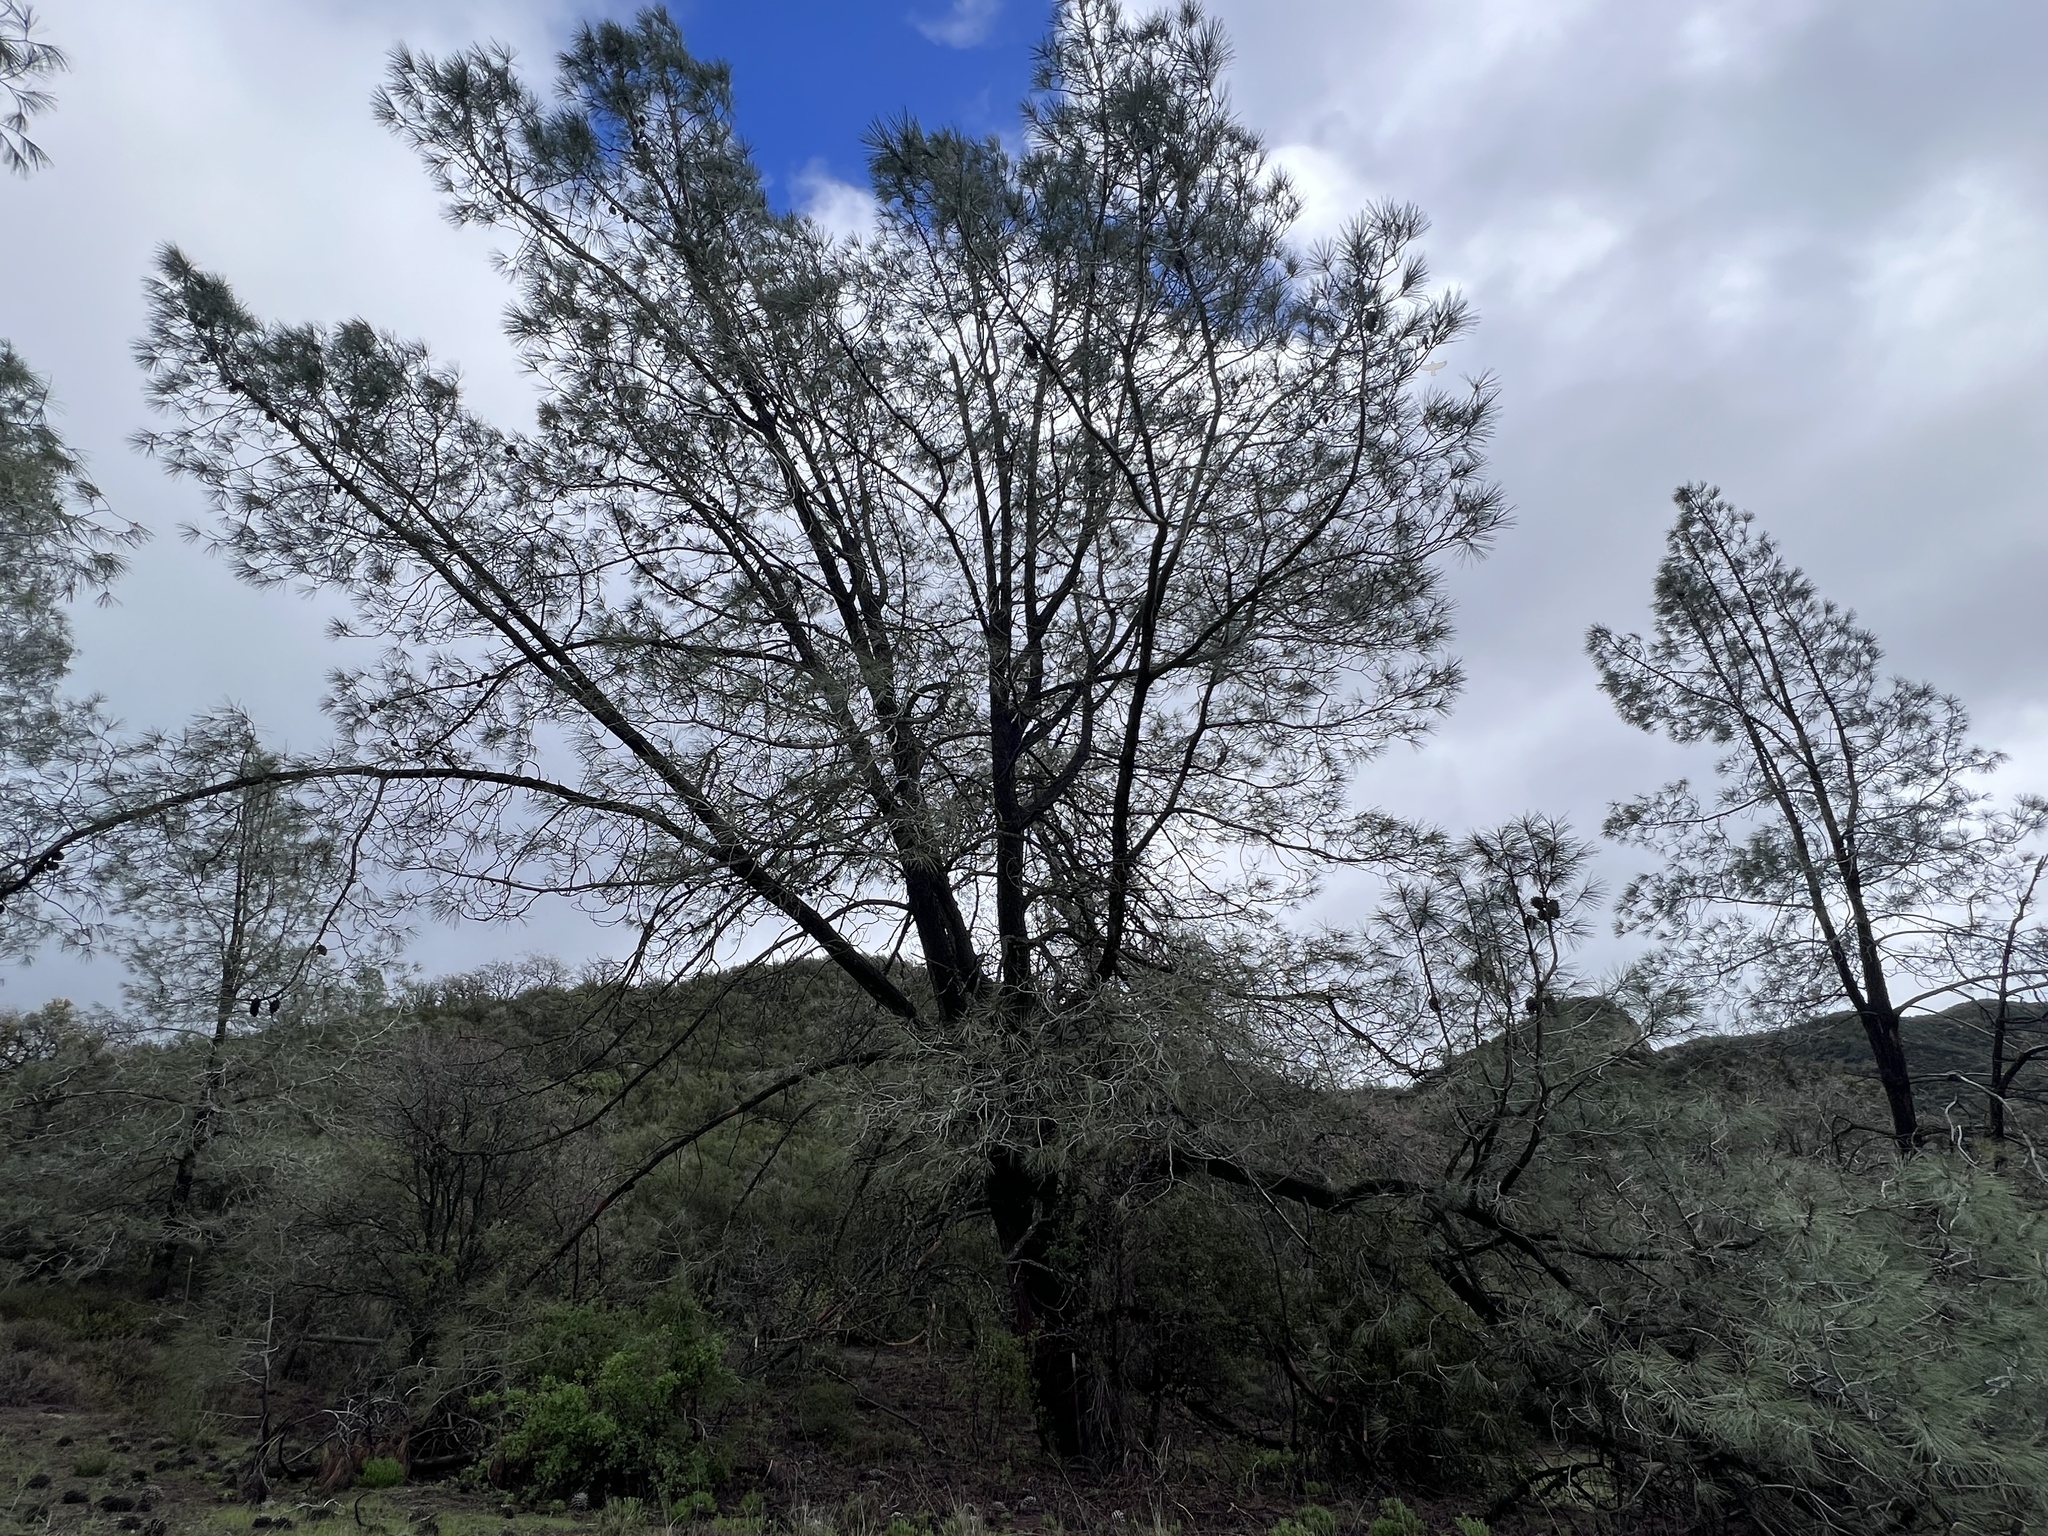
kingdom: Plantae
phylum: Tracheophyta
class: Pinopsida
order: Pinales
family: Pinaceae
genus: Pinus
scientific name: Pinus sabiniana
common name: Bull pine
